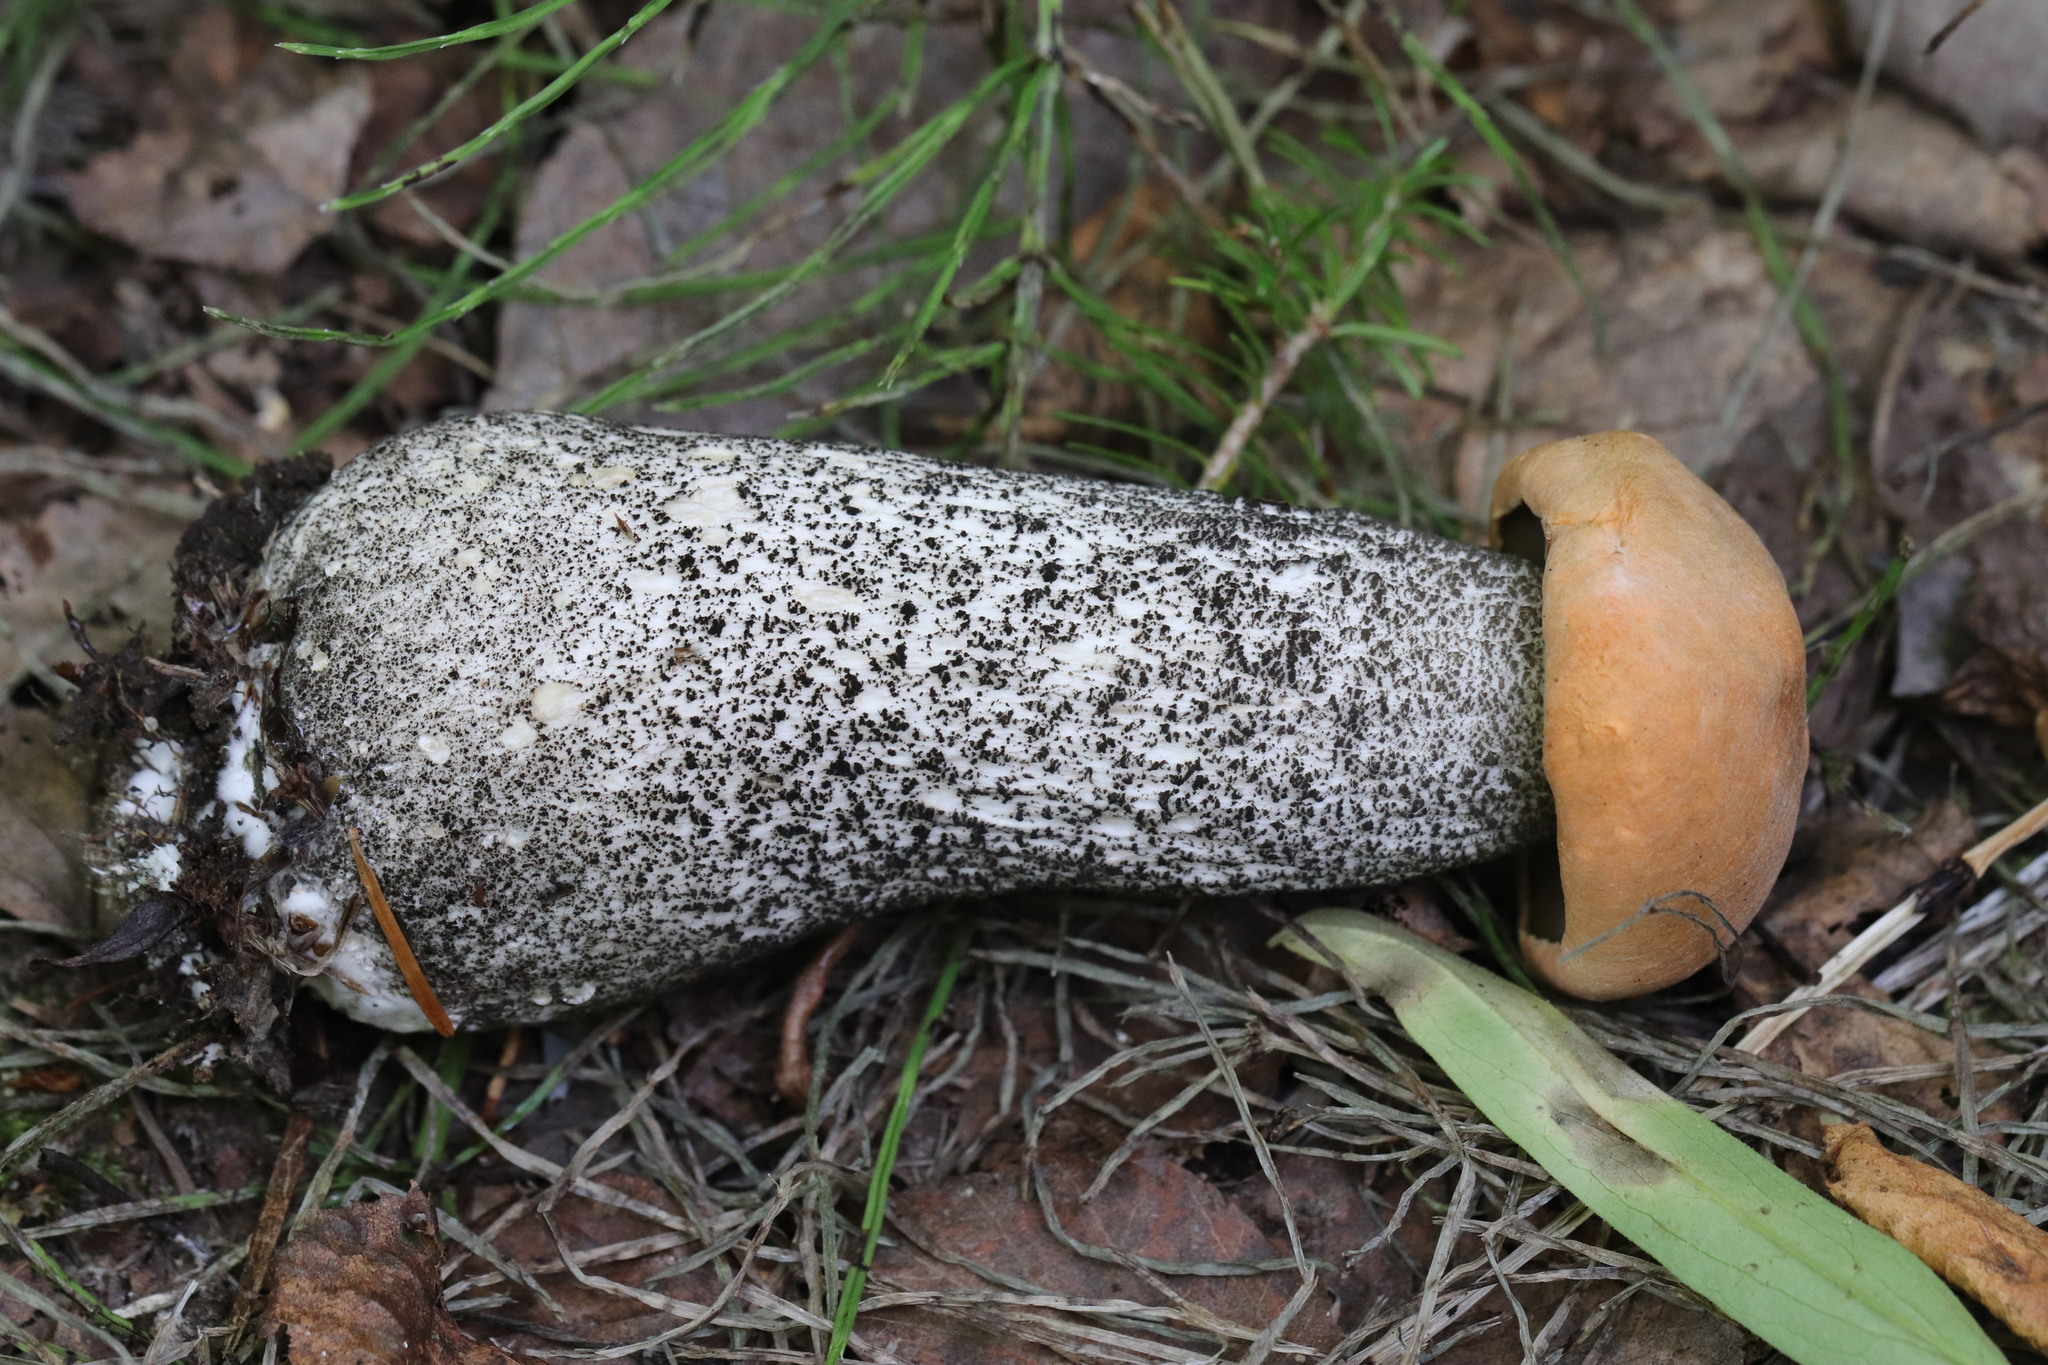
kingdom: Fungi
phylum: Basidiomycota
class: Agaricomycetes
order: Boletales
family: Boletaceae
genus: Leccinum
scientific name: Leccinum versipelle
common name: Orange birch bolete
